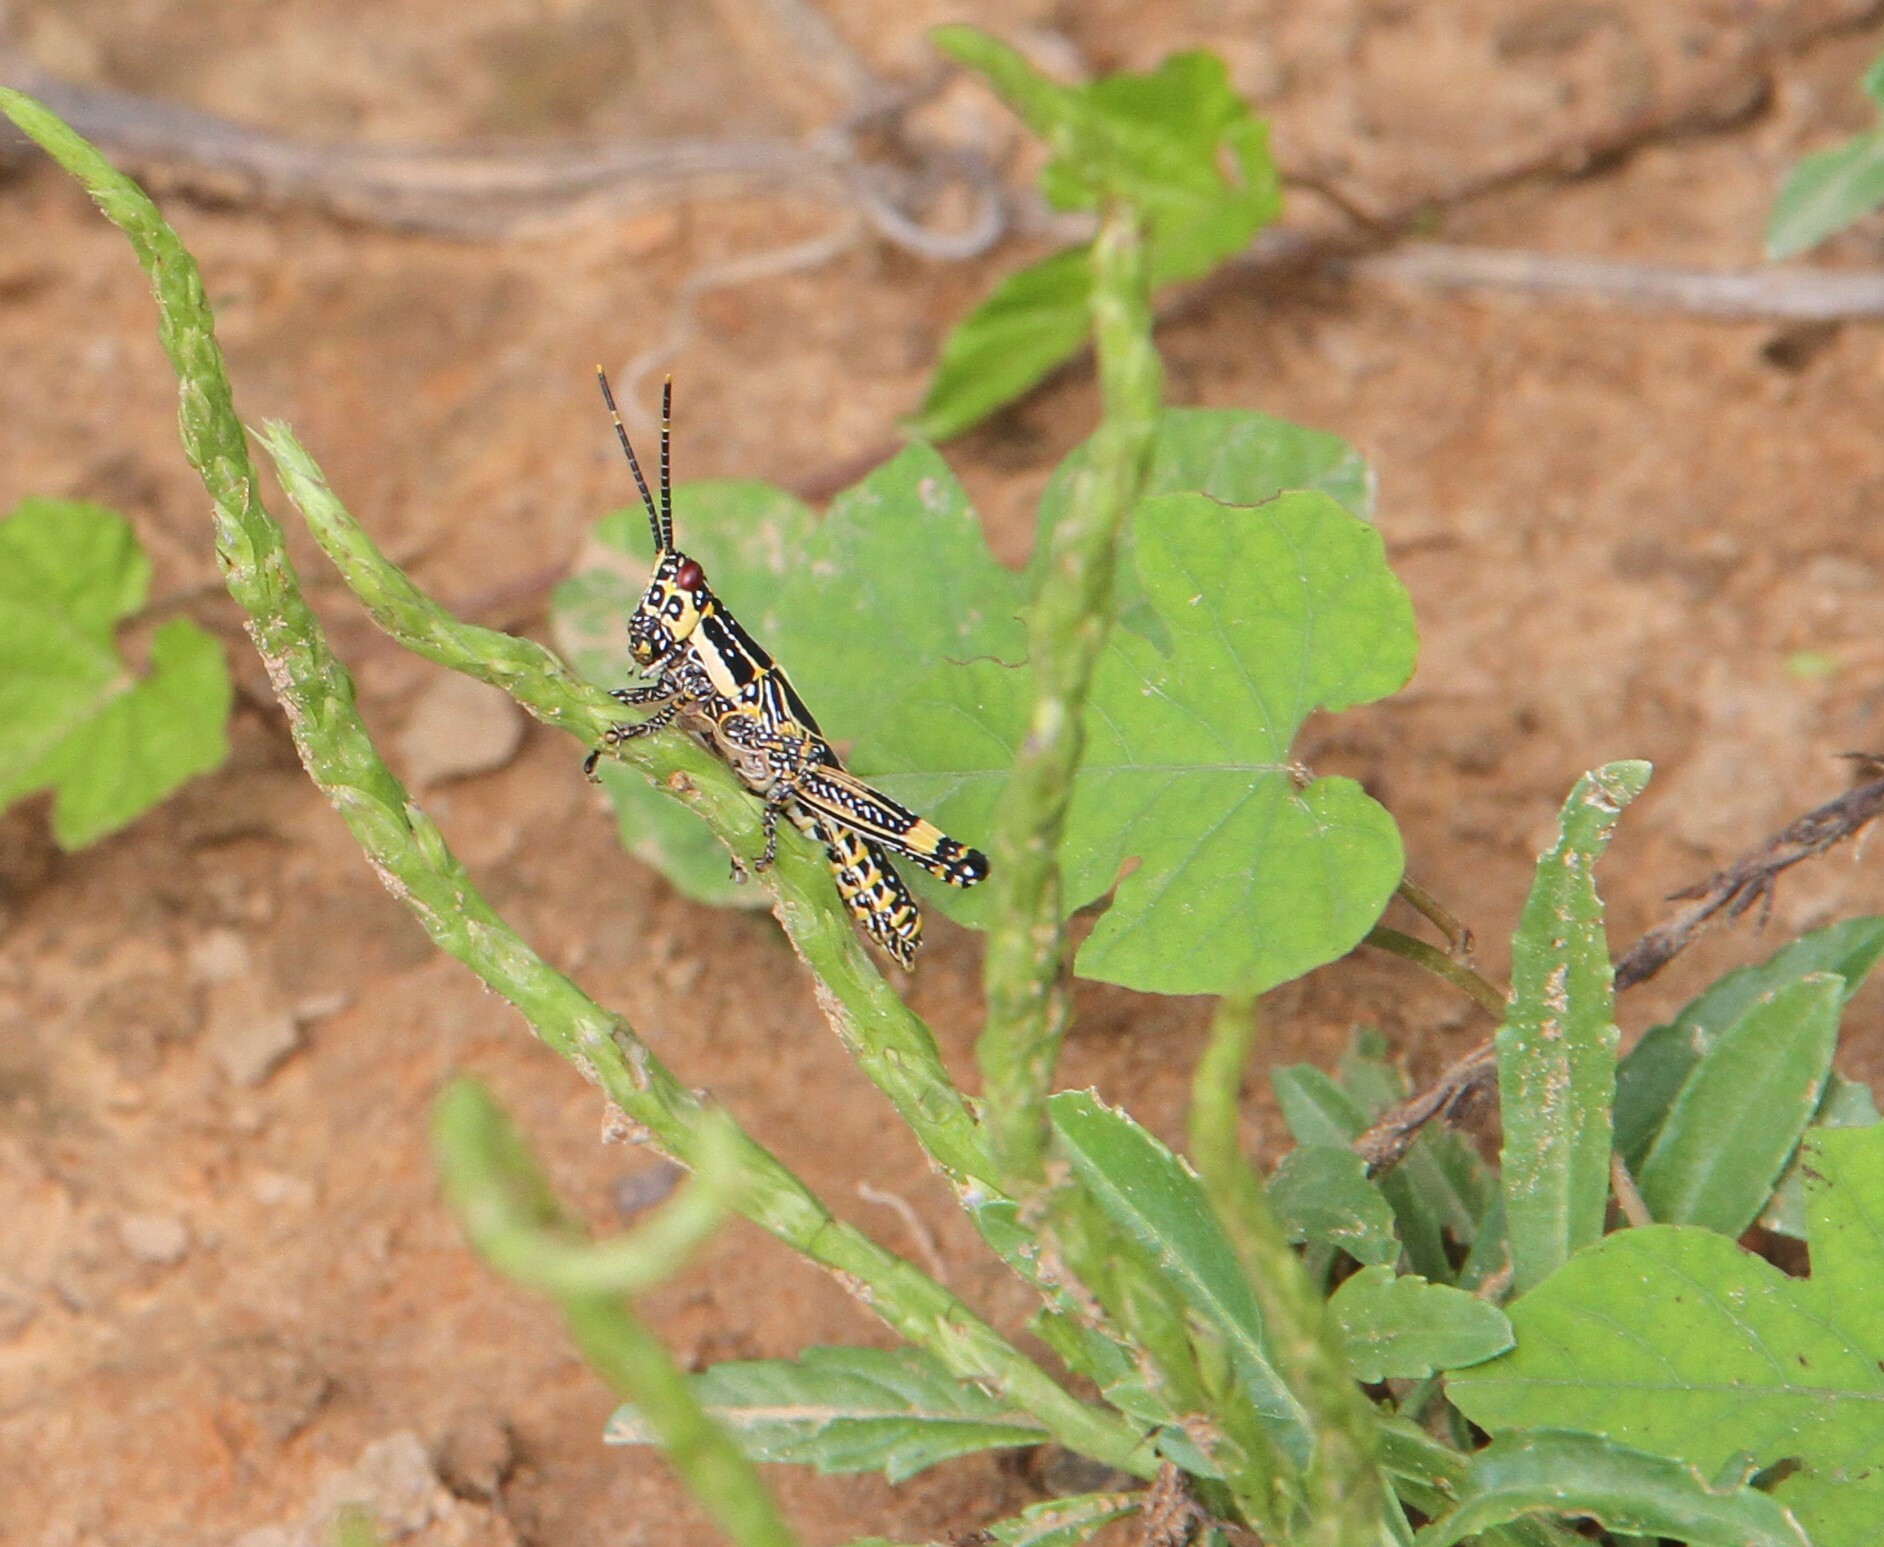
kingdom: Animalia
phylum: Arthropoda
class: Insecta
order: Orthoptera
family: Pyrgomorphidae
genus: Zonocerus
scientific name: Zonocerus variegatus
